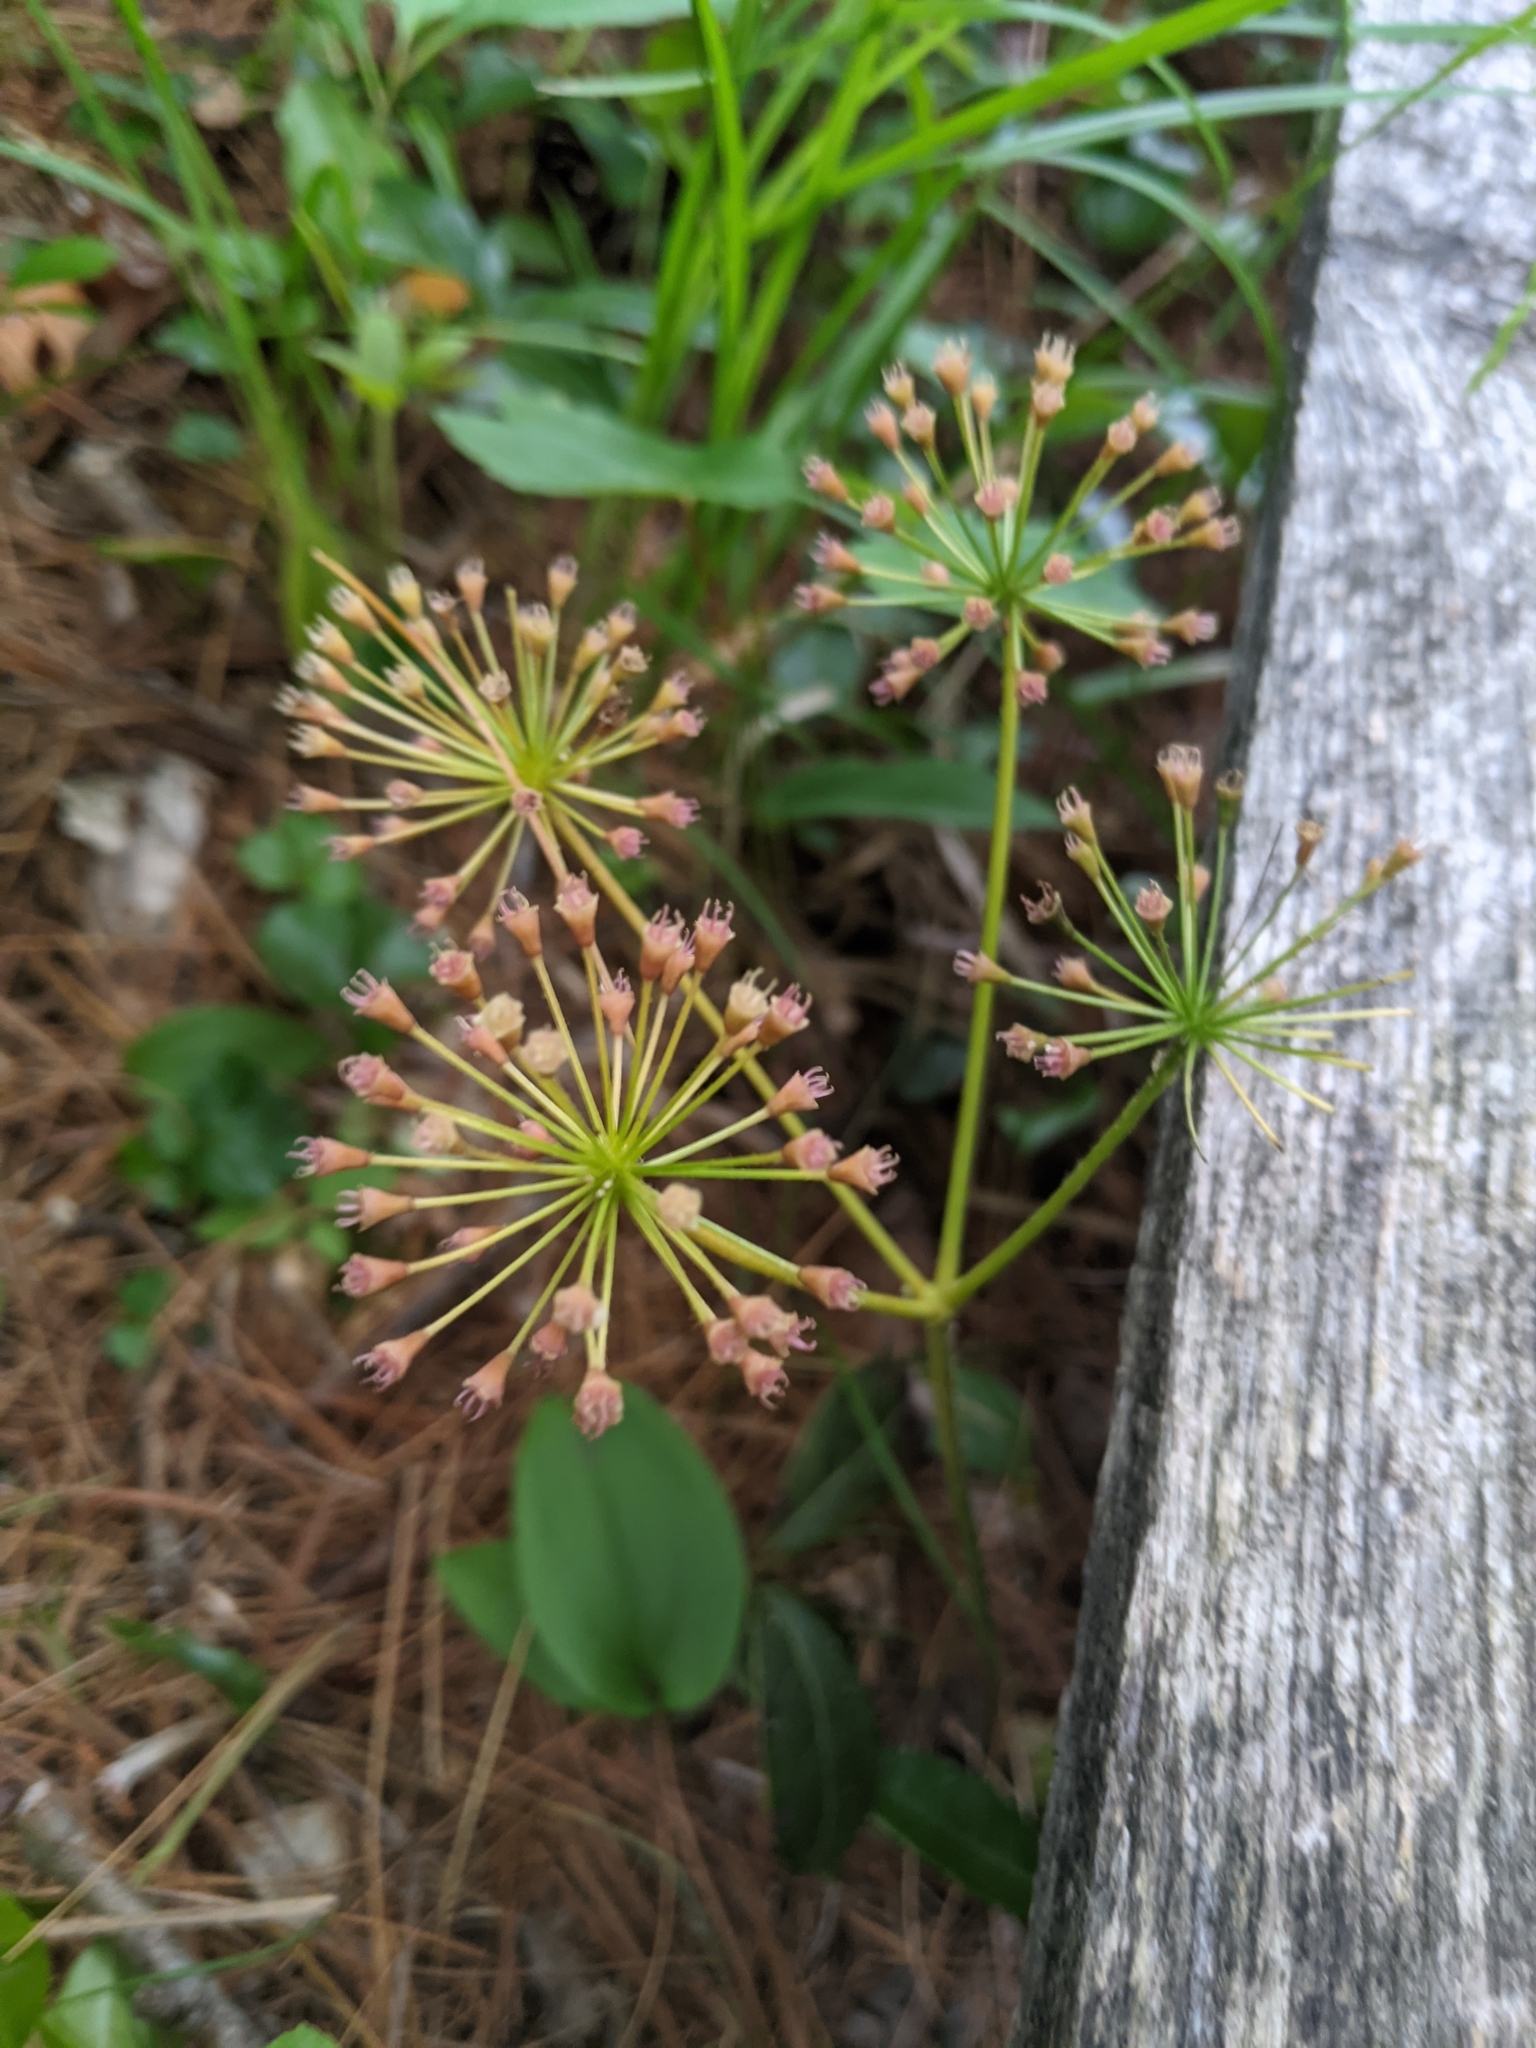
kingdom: Plantae
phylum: Tracheophyta
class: Magnoliopsida
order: Apiales
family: Araliaceae
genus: Aralia
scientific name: Aralia nudicaulis
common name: Wild sarsaparilla
